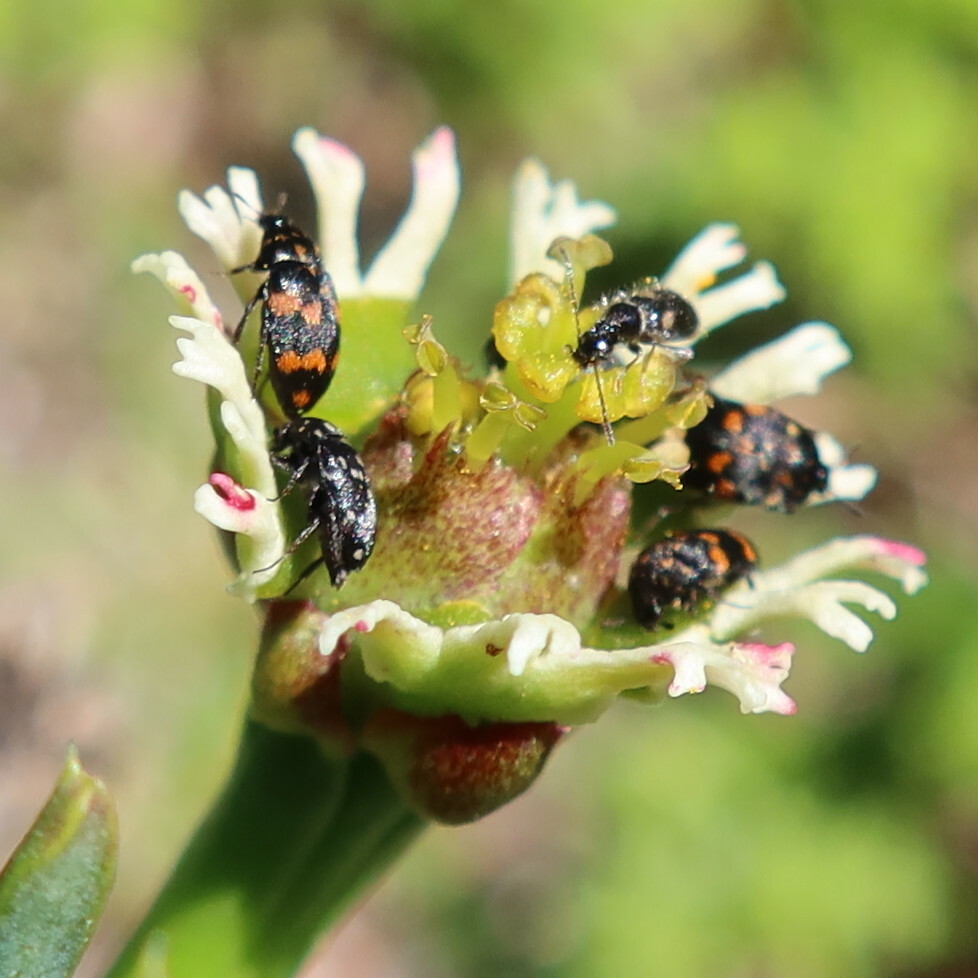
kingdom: Plantae
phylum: Tracheophyta
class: Magnoliopsida
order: Malpighiales
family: Euphorbiaceae
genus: Euphorbia
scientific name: Euphorbia caput-medusae
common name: Medusa's-head
